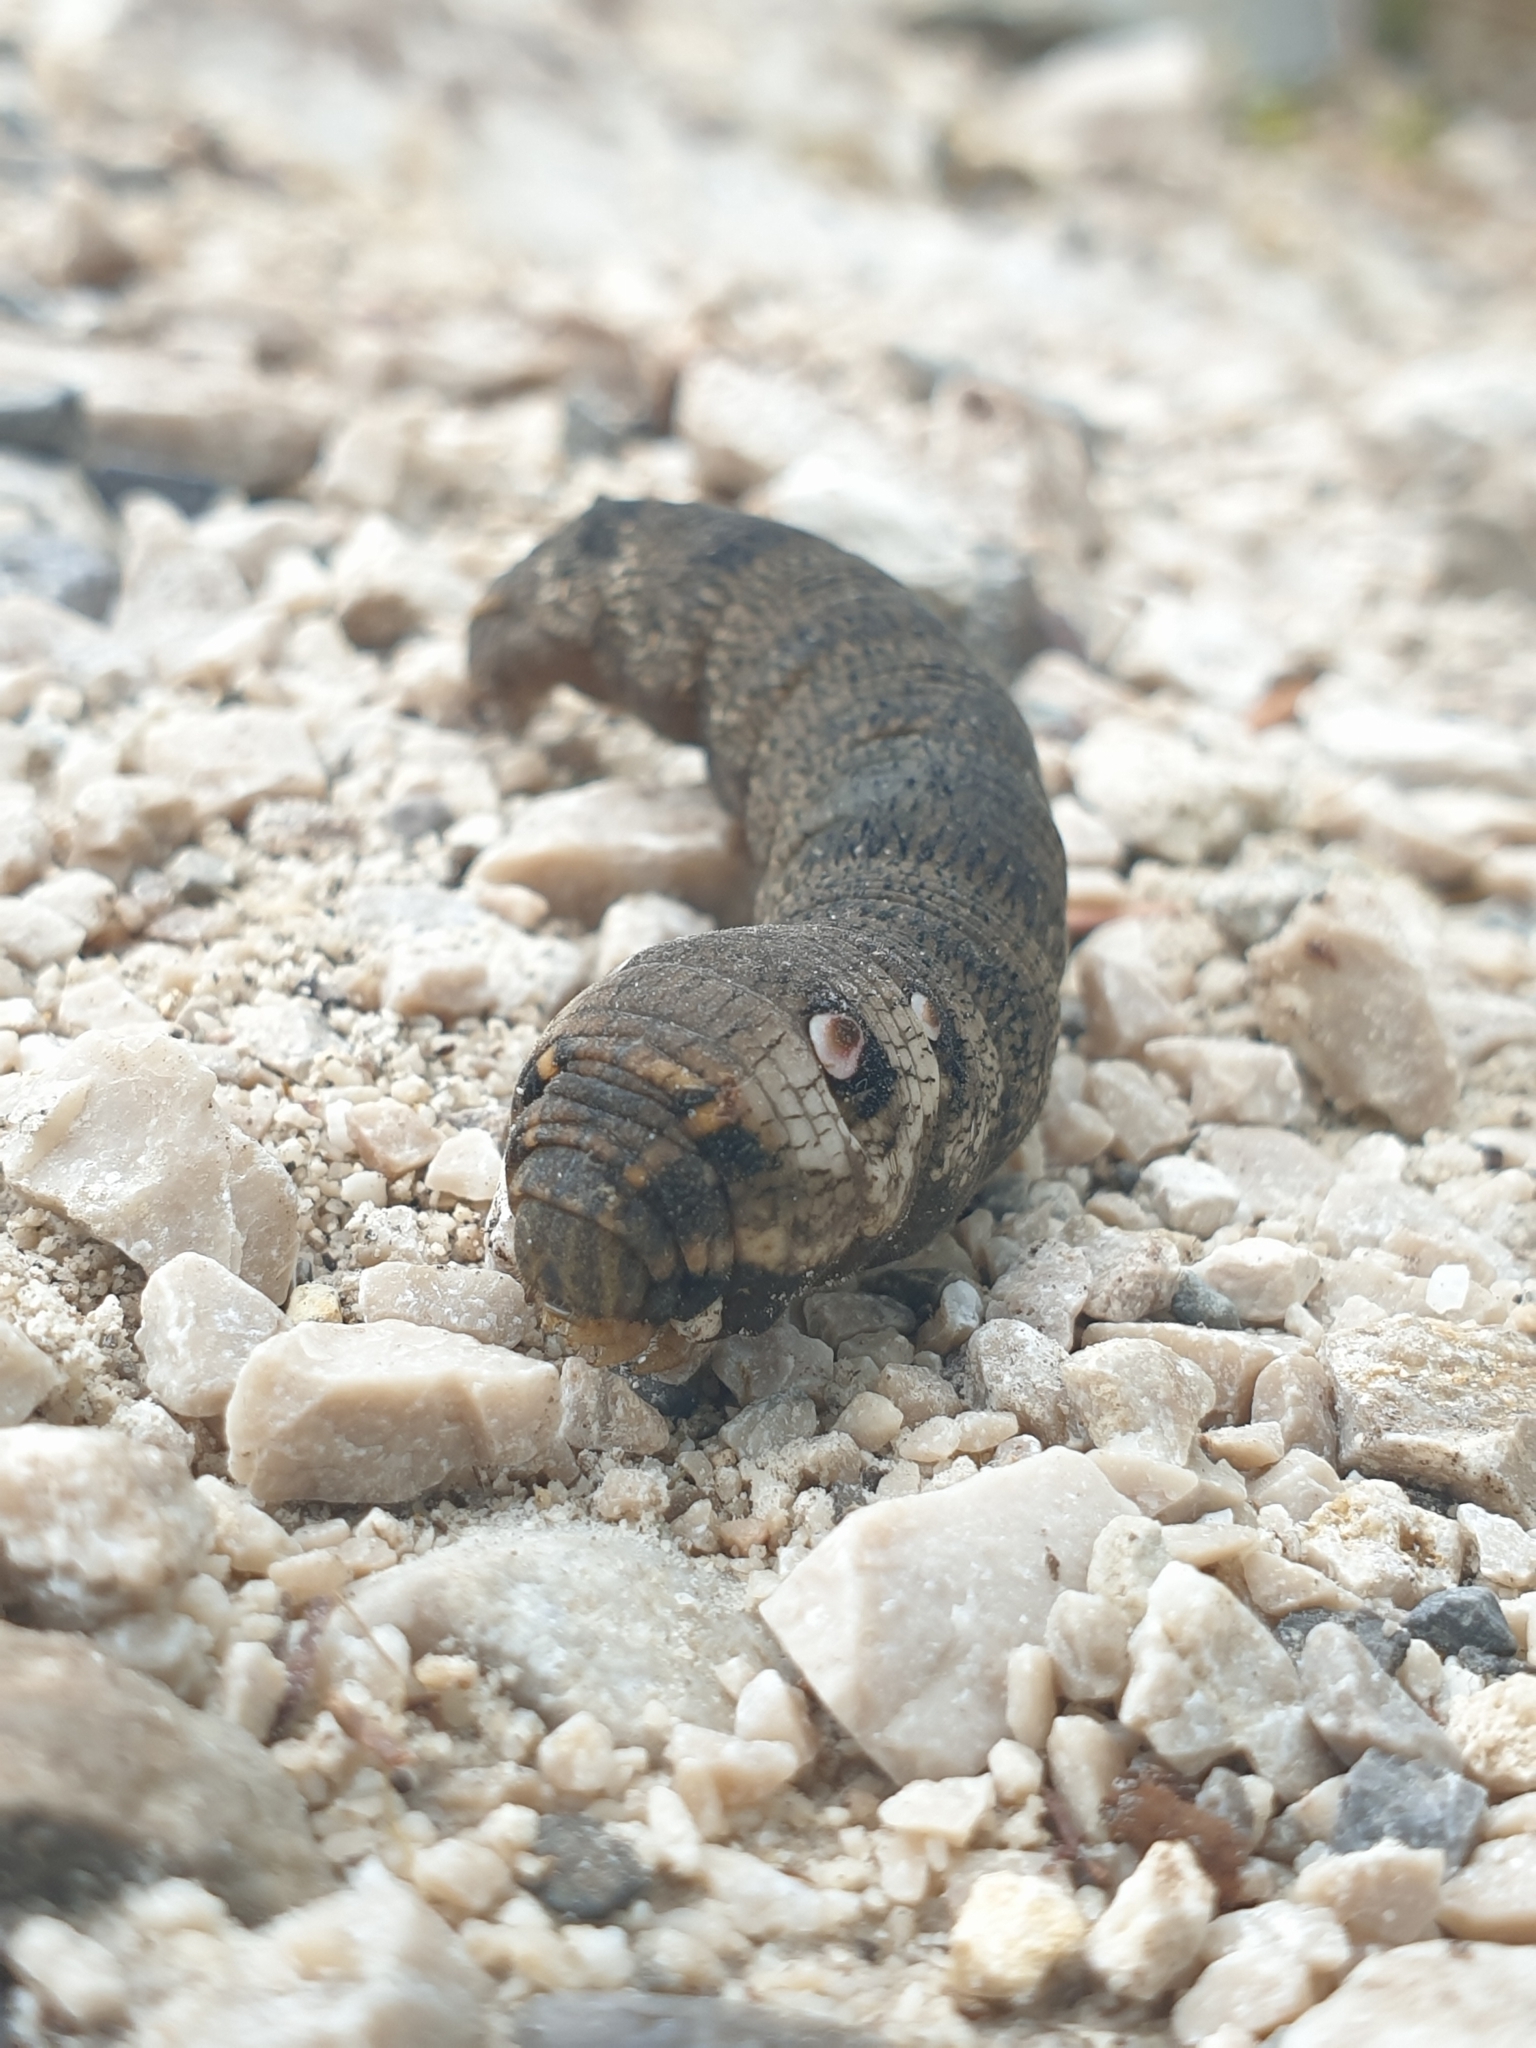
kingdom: Animalia
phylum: Arthropoda
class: Insecta
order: Lepidoptera
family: Sphingidae
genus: Deilephila
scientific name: Deilephila porcellus
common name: Small elephant hawk-moth
